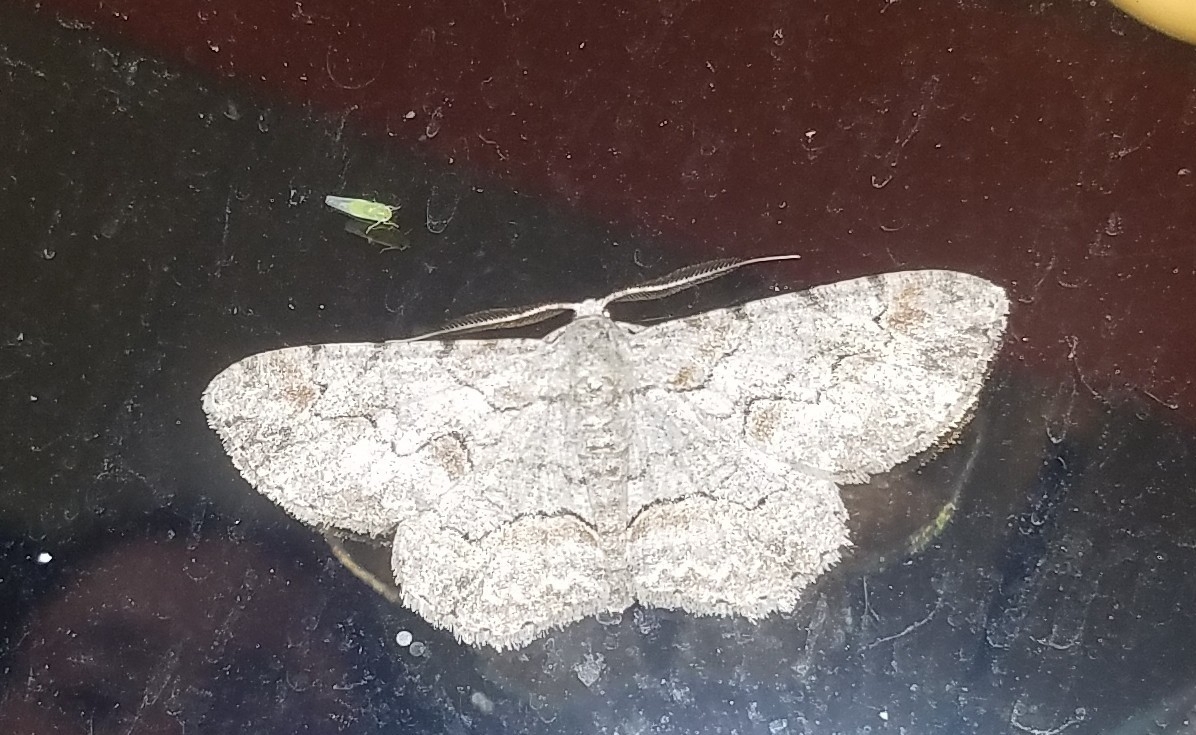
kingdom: Animalia
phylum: Arthropoda
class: Insecta
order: Lepidoptera
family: Geometridae
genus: Iridopsis
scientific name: Iridopsis defectaria
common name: Brown-shaded gray
